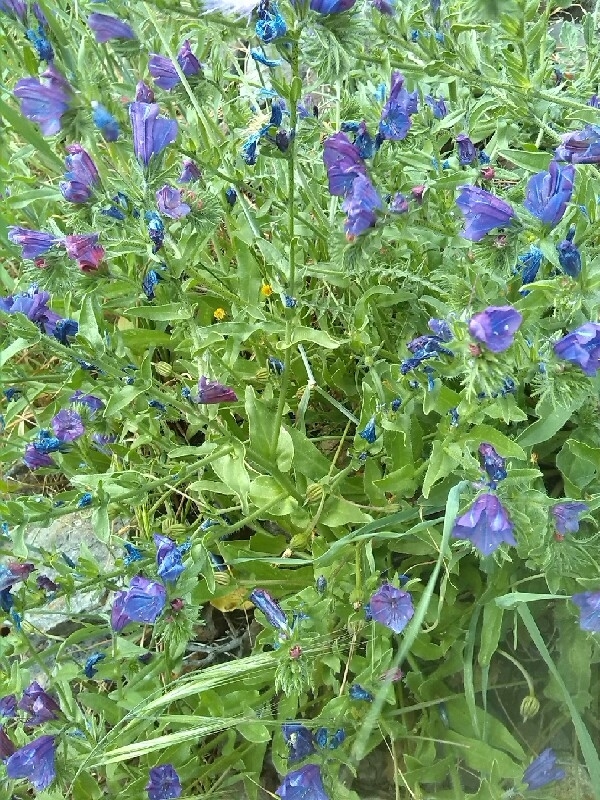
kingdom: Plantae
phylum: Tracheophyta
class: Magnoliopsida
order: Boraginales
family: Boraginaceae
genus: Echium
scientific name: Echium plantagineum
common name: Purple viper's-bugloss
